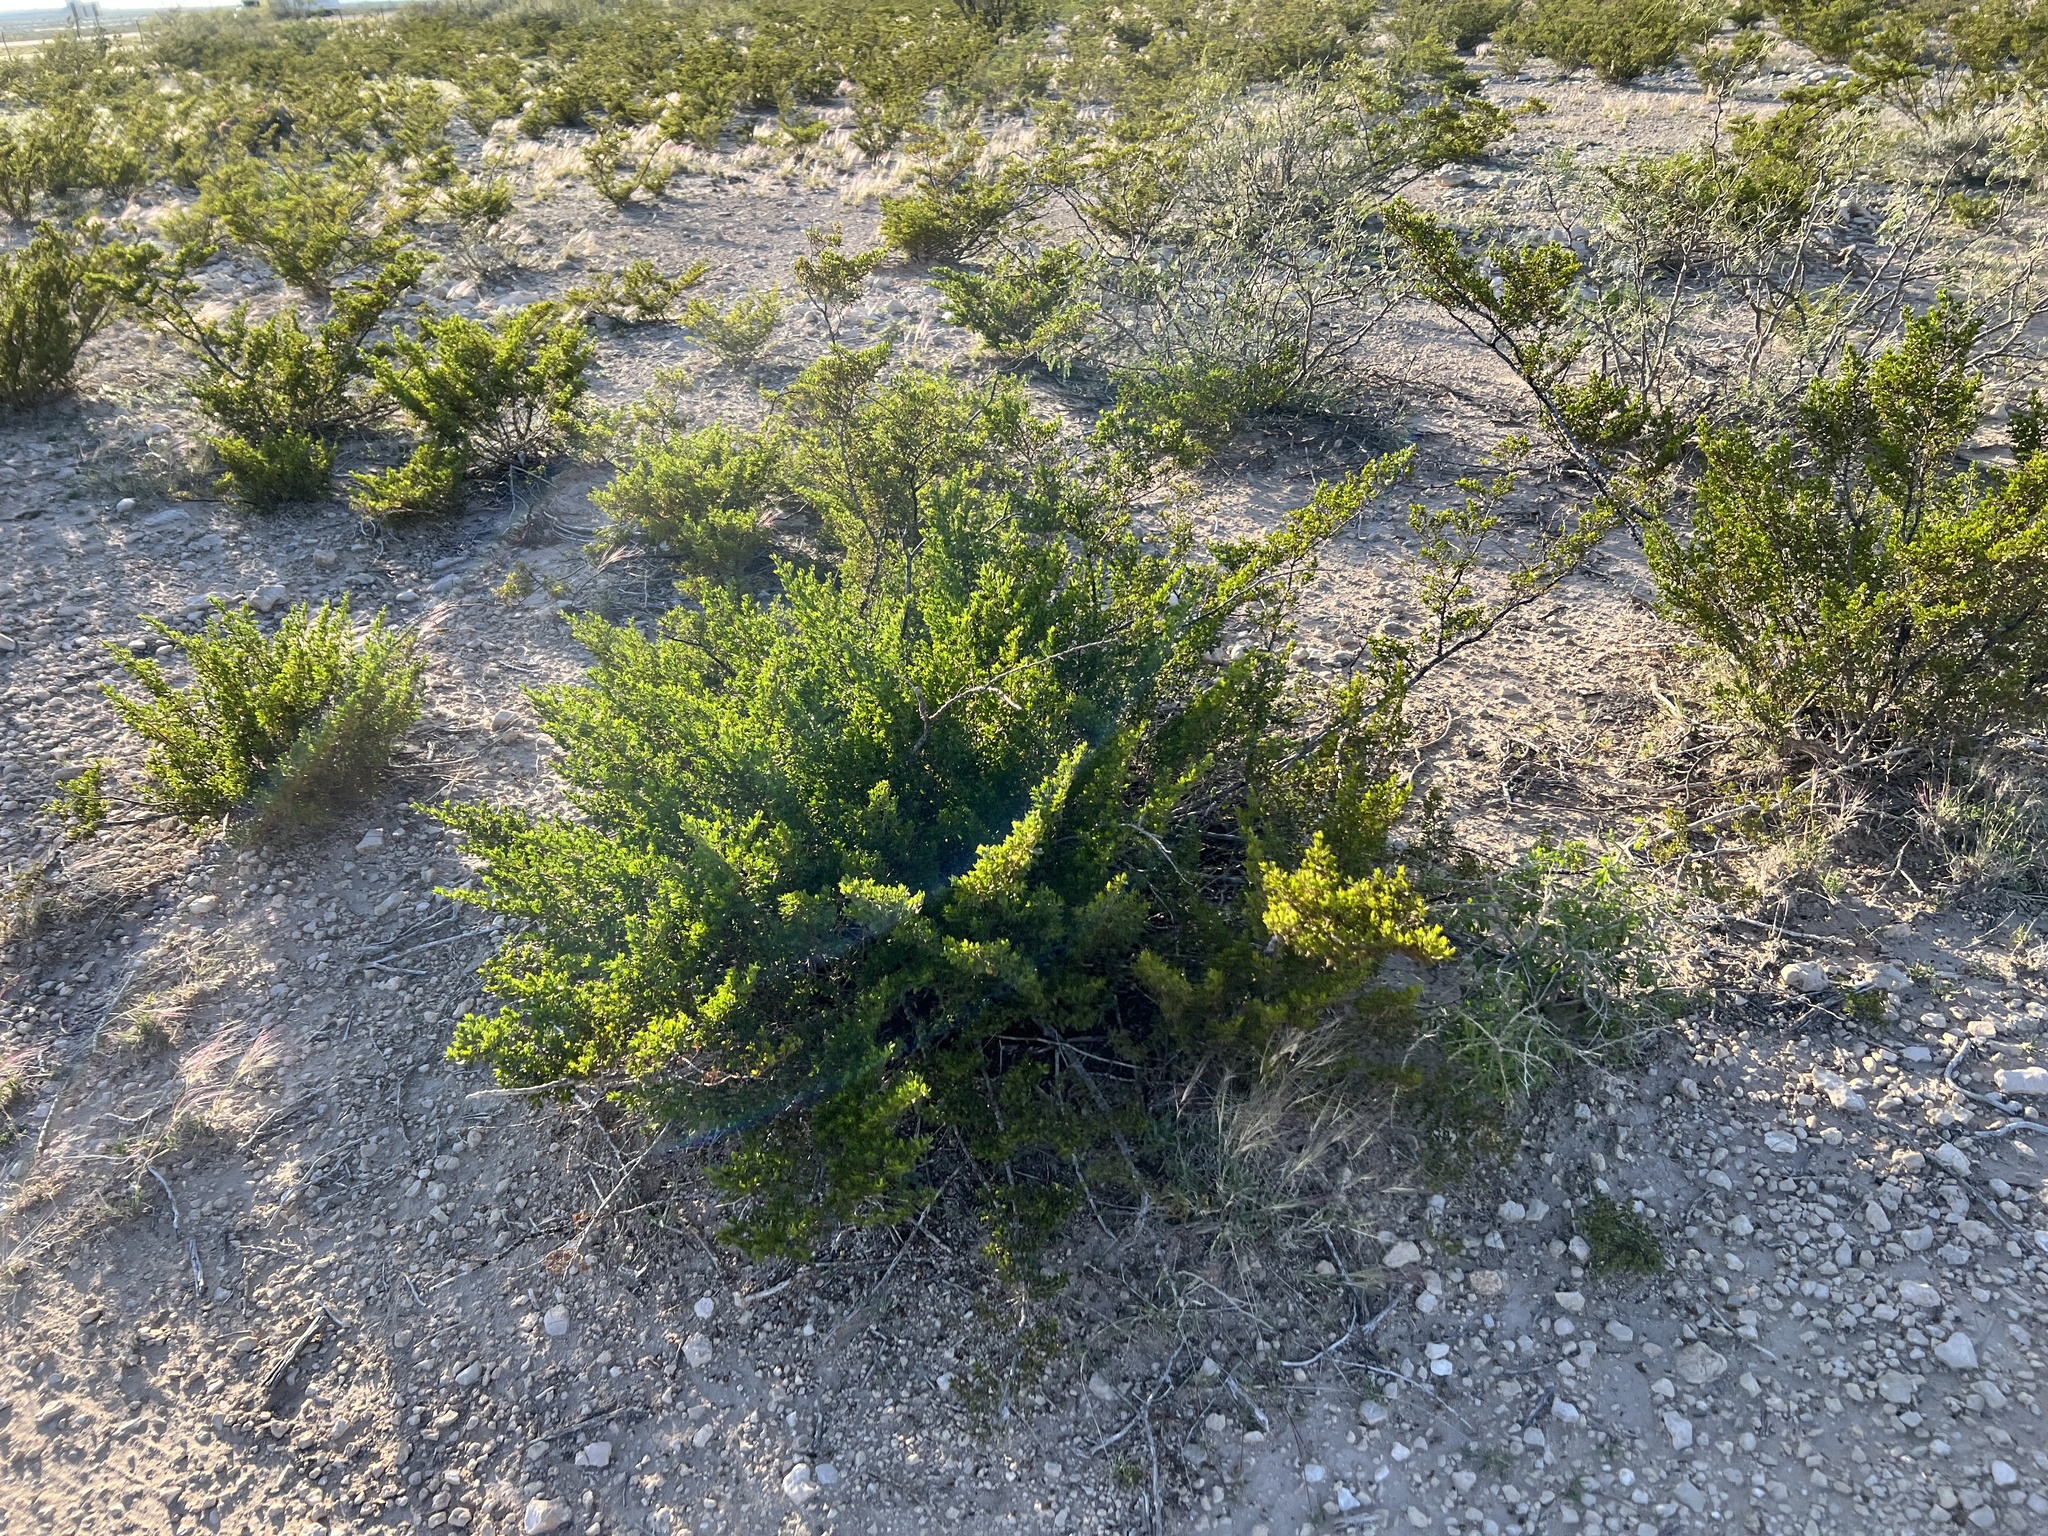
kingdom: Plantae
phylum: Tracheophyta
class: Magnoliopsida
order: Zygophyllales
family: Zygophyllaceae
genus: Larrea
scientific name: Larrea tridentata
